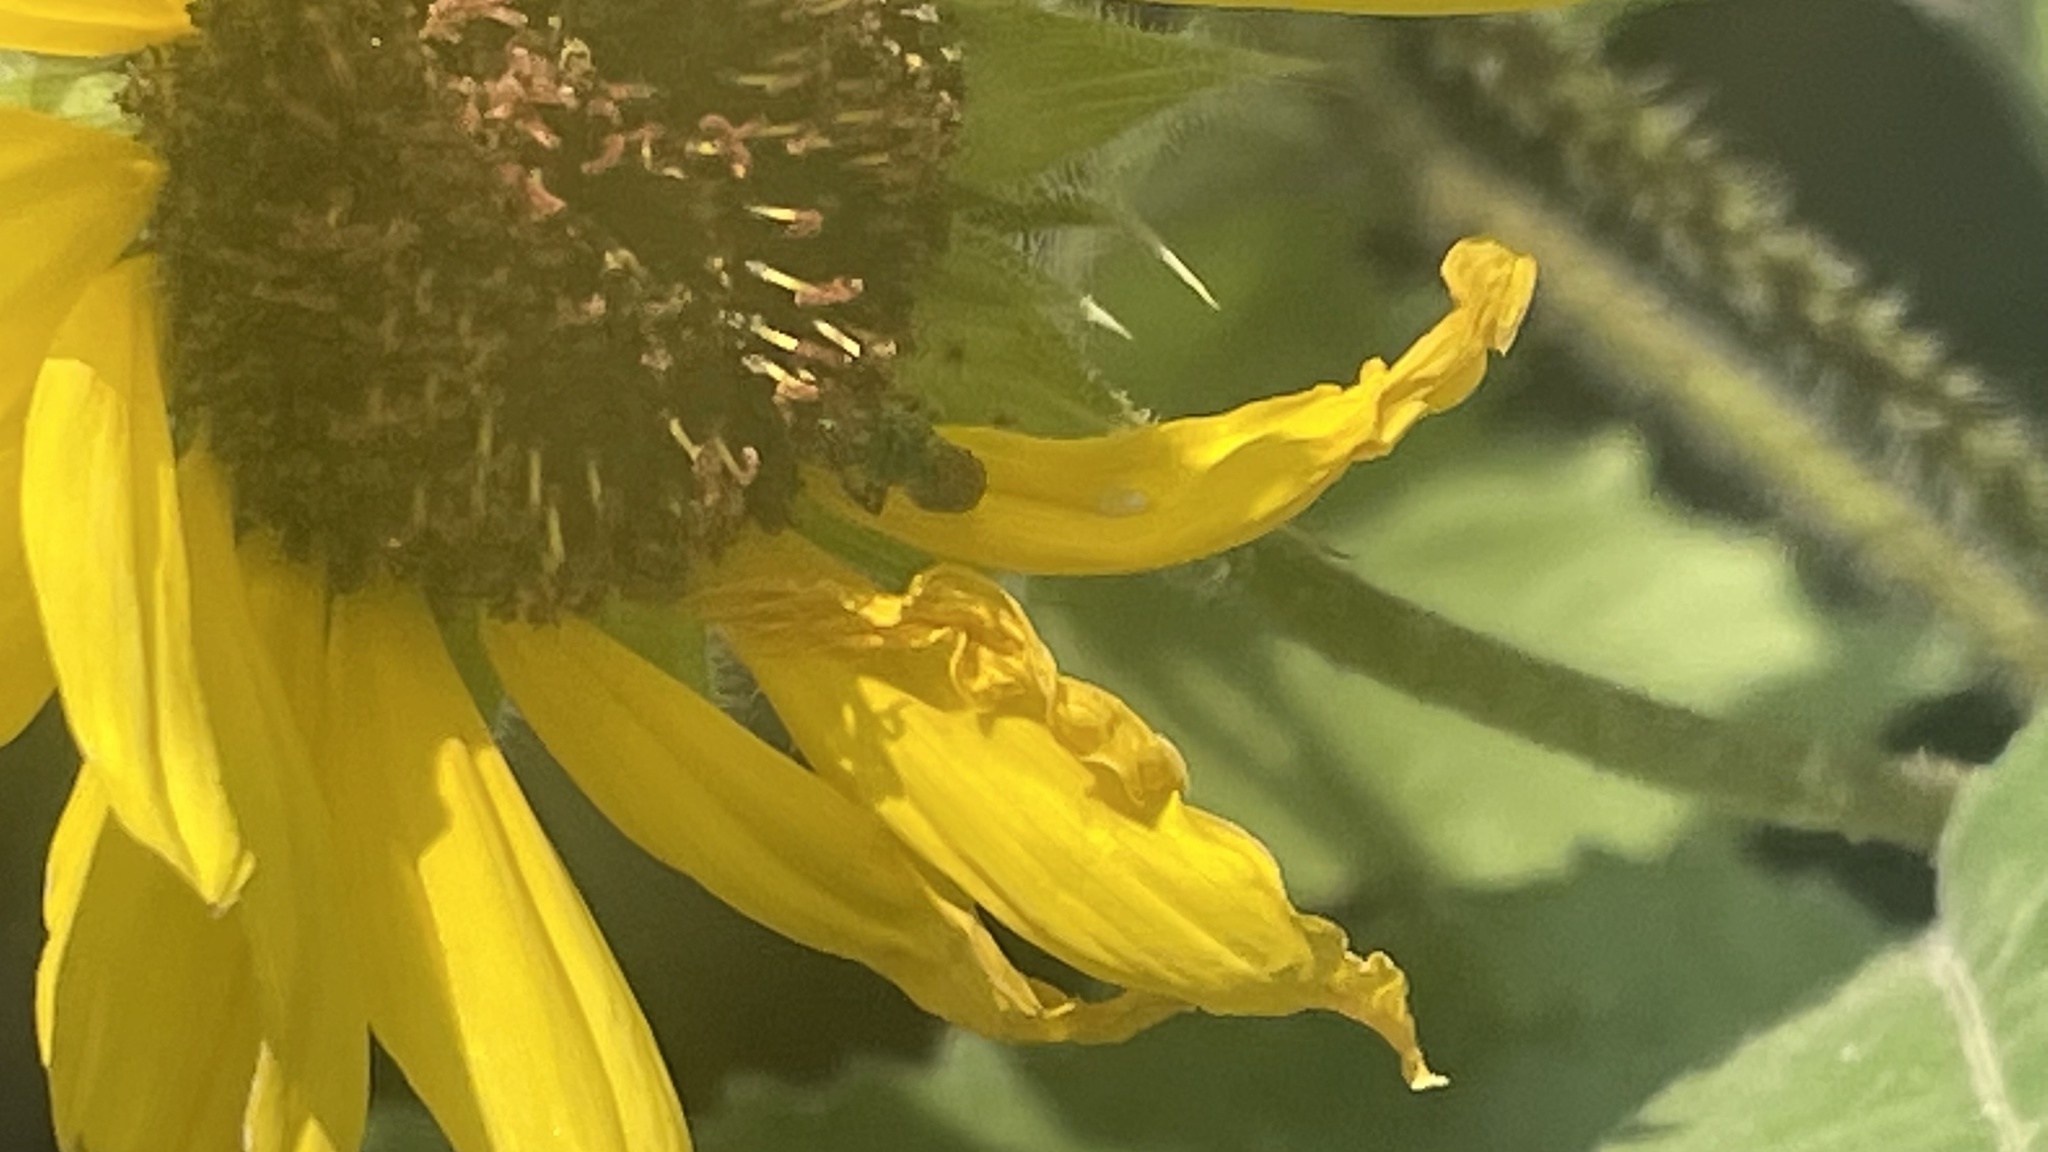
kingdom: Plantae
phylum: Tracheophyta
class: Magnoliopsida
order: Asterales
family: Asteraceae
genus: Helianthus
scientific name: Helianthus annuus
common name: Sunflower
